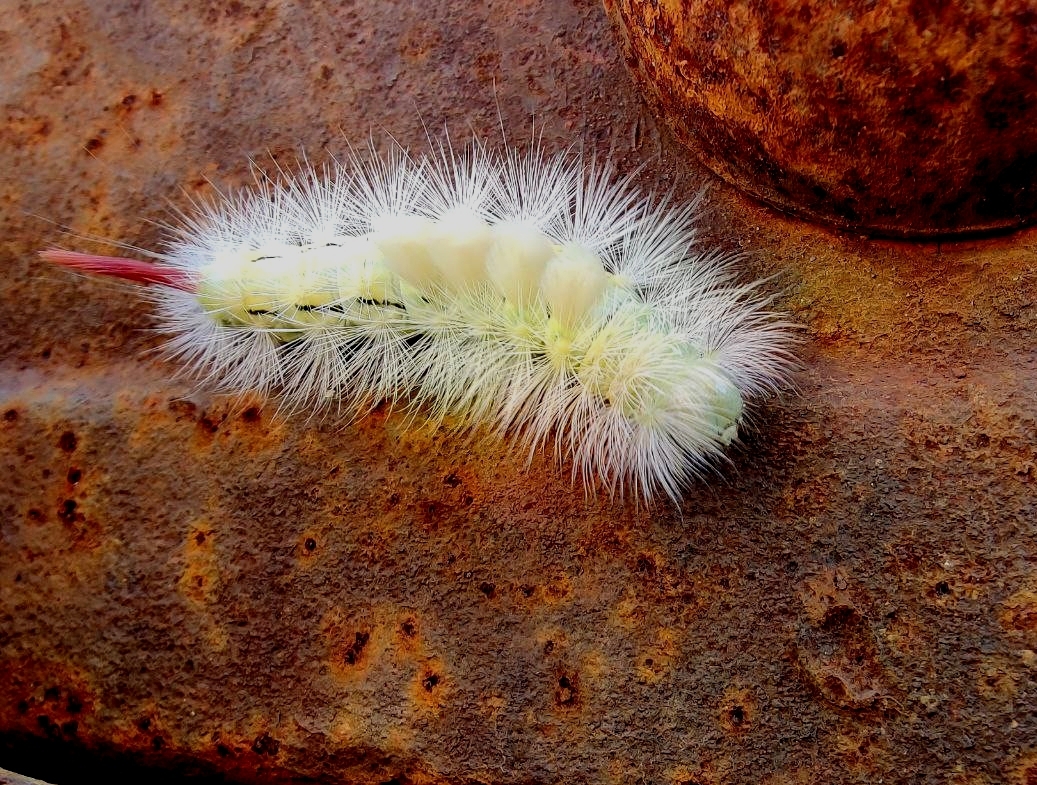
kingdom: Animalia
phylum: Arthropoda
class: Insecta
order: Lepidoptera
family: Erebidae
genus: Calliteara
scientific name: Calliteara pudibunda
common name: Pale tussock
